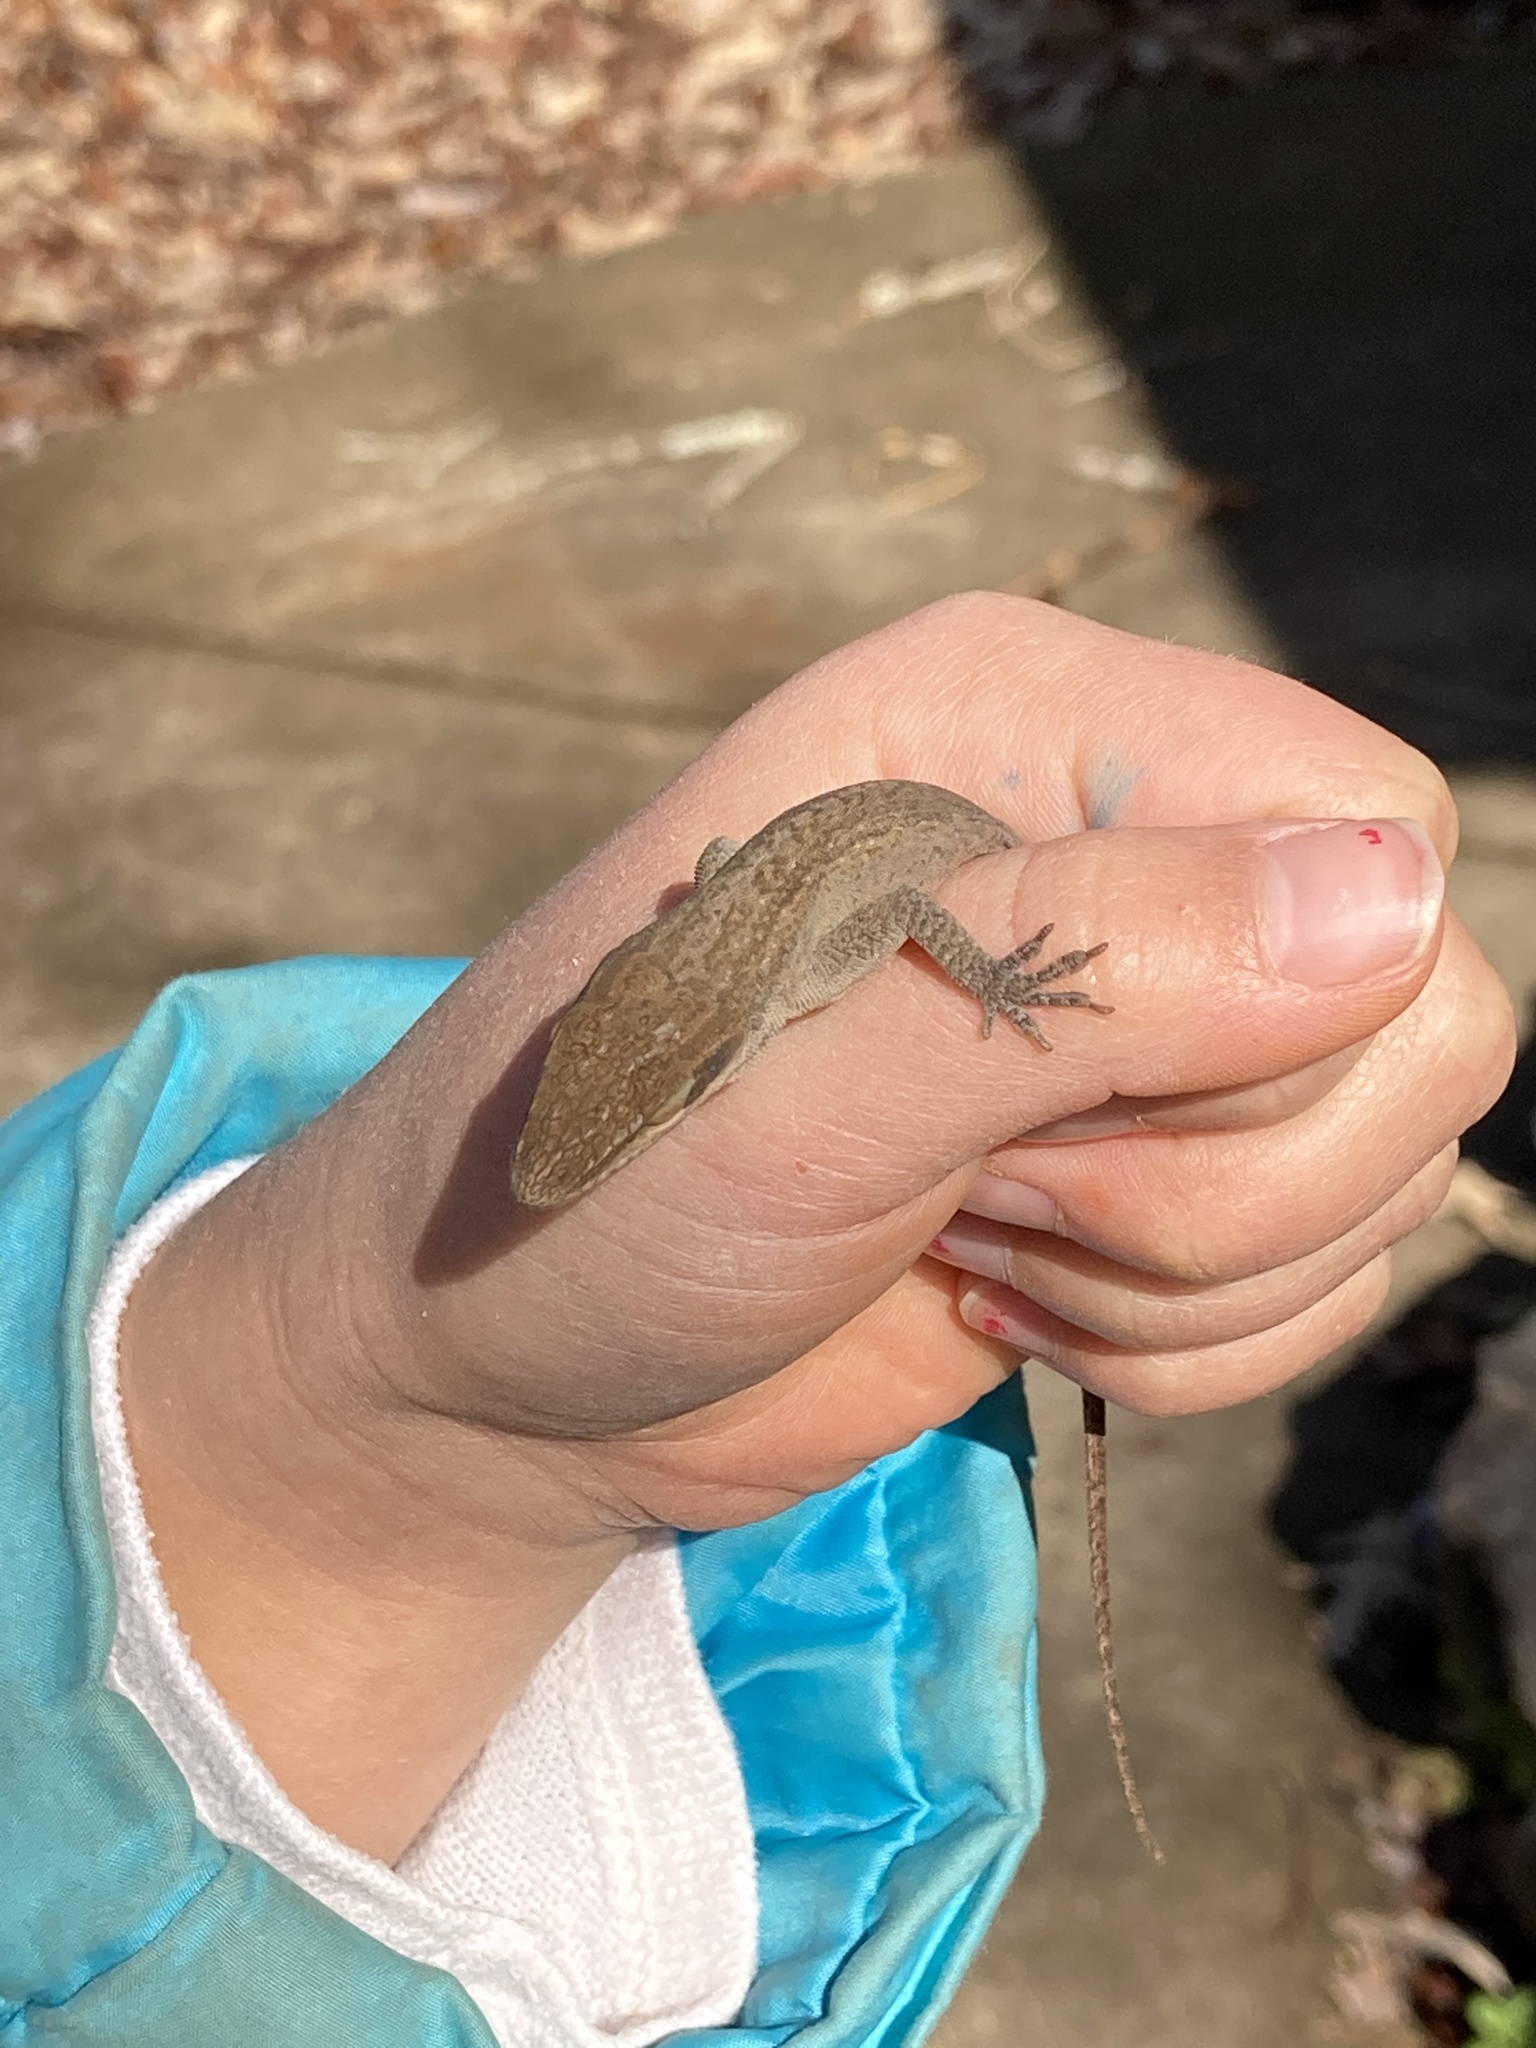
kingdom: Animalia
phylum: Chordata
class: Squamata
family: Dactyloidae
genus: Anolis
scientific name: Anolis carolinensis
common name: Green anole
